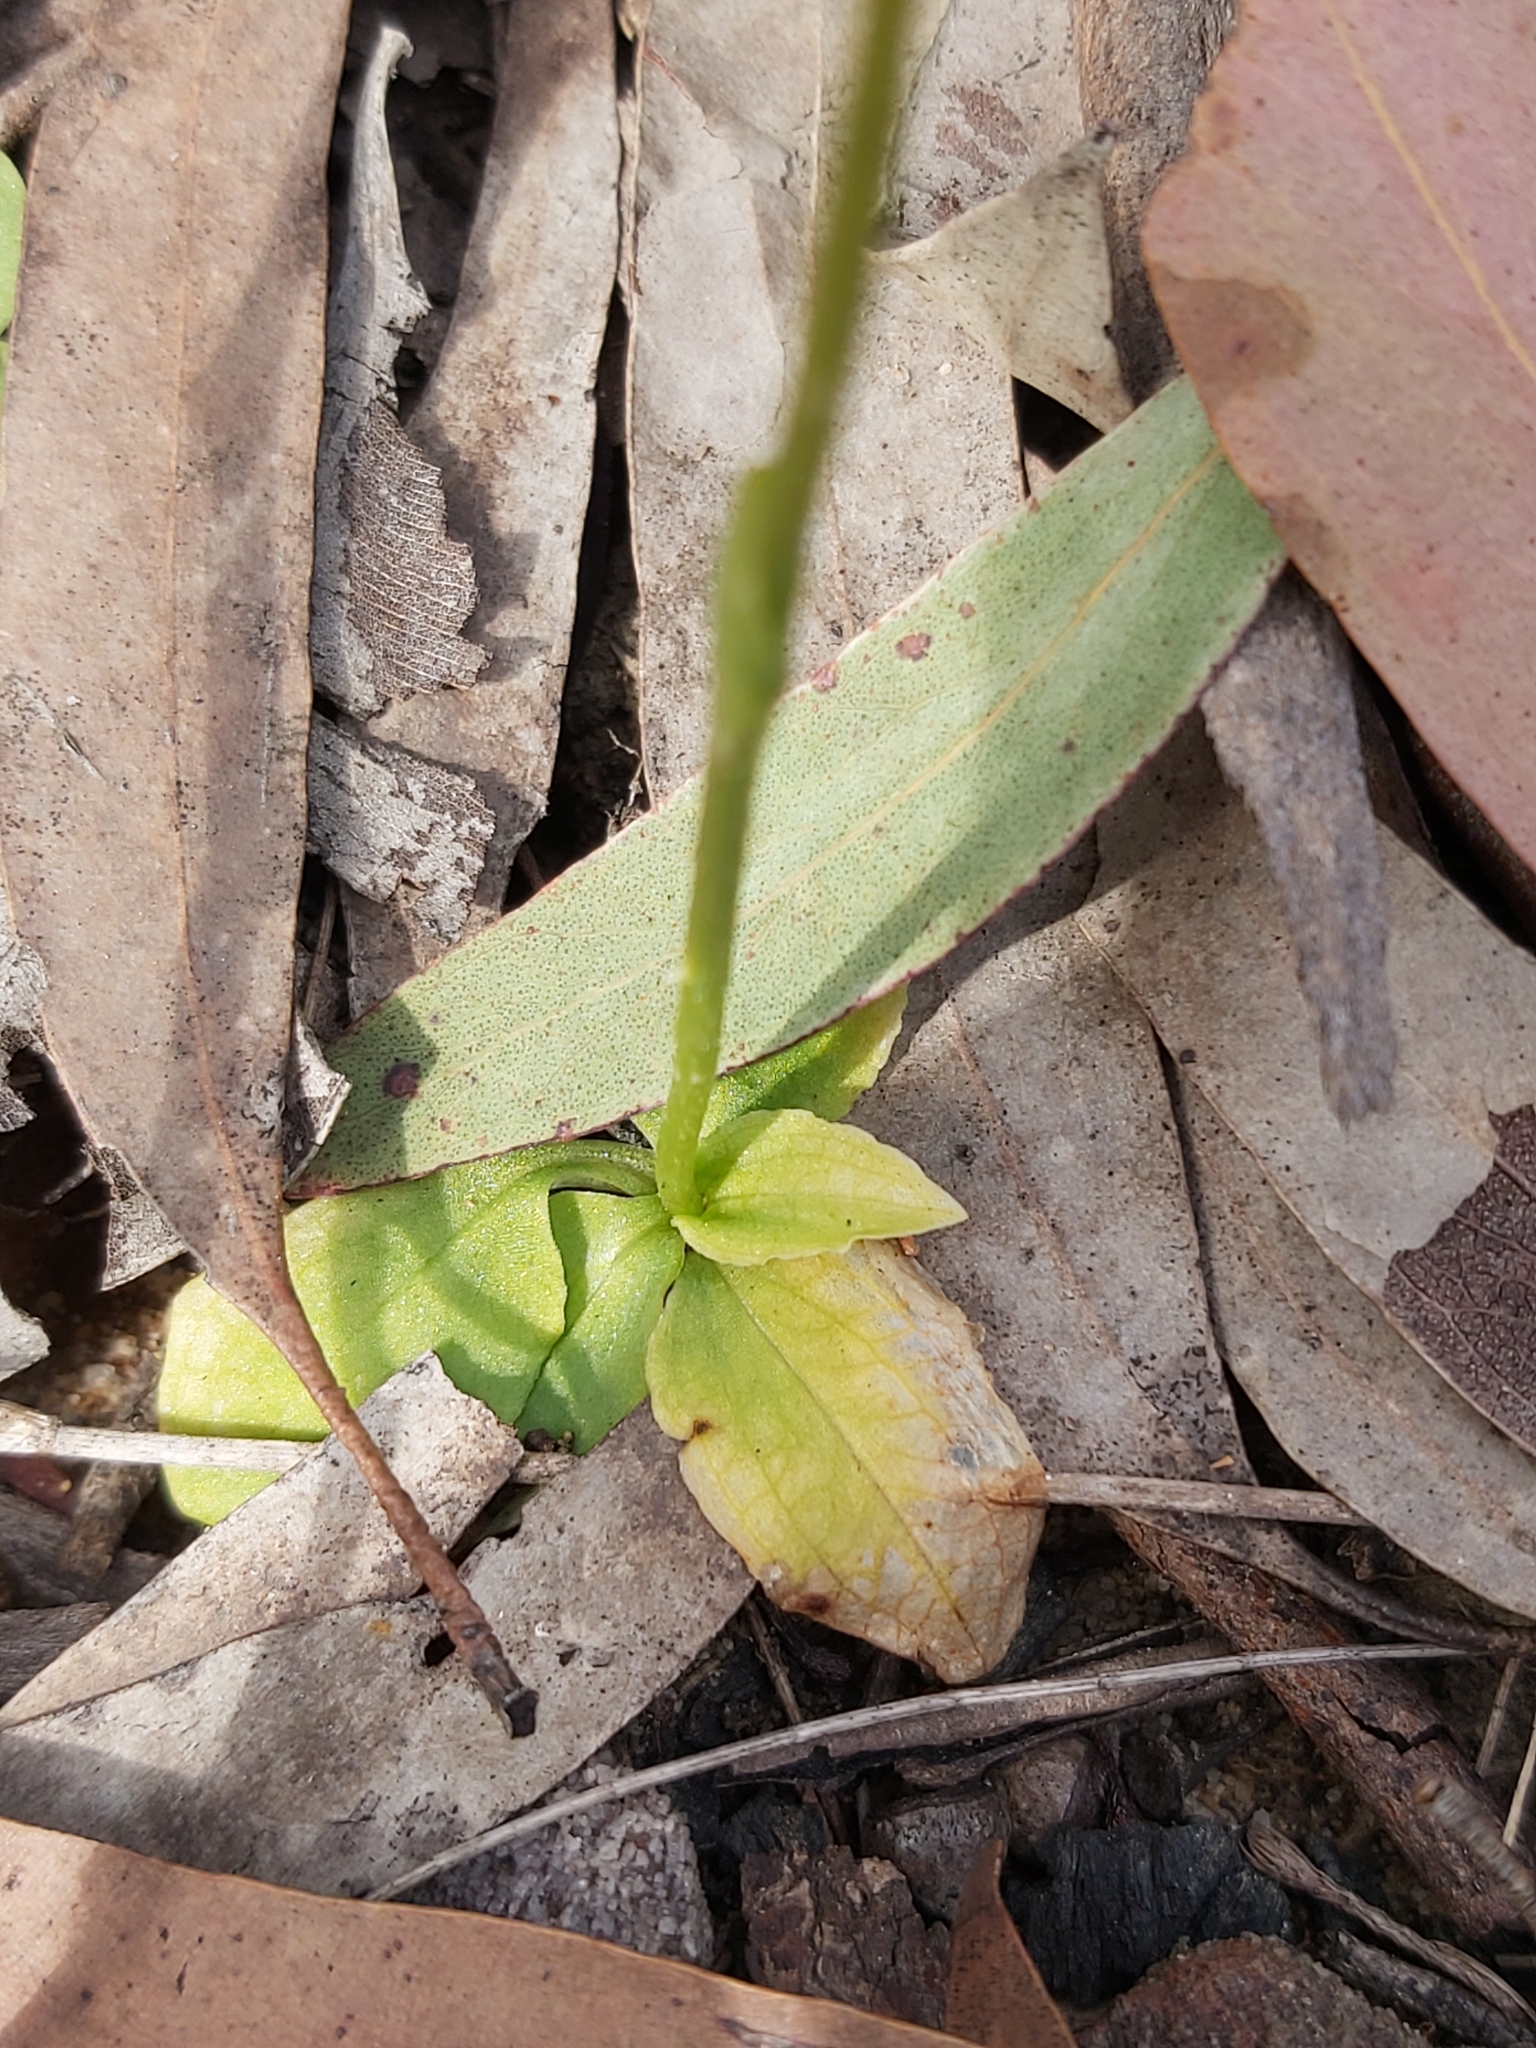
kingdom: Plantae
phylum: Tracheophyta
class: Liliopsida
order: Asparagales
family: Orchidaceae
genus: Pterostylis
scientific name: Pterostylis acuminata
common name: Pointed greenhood
